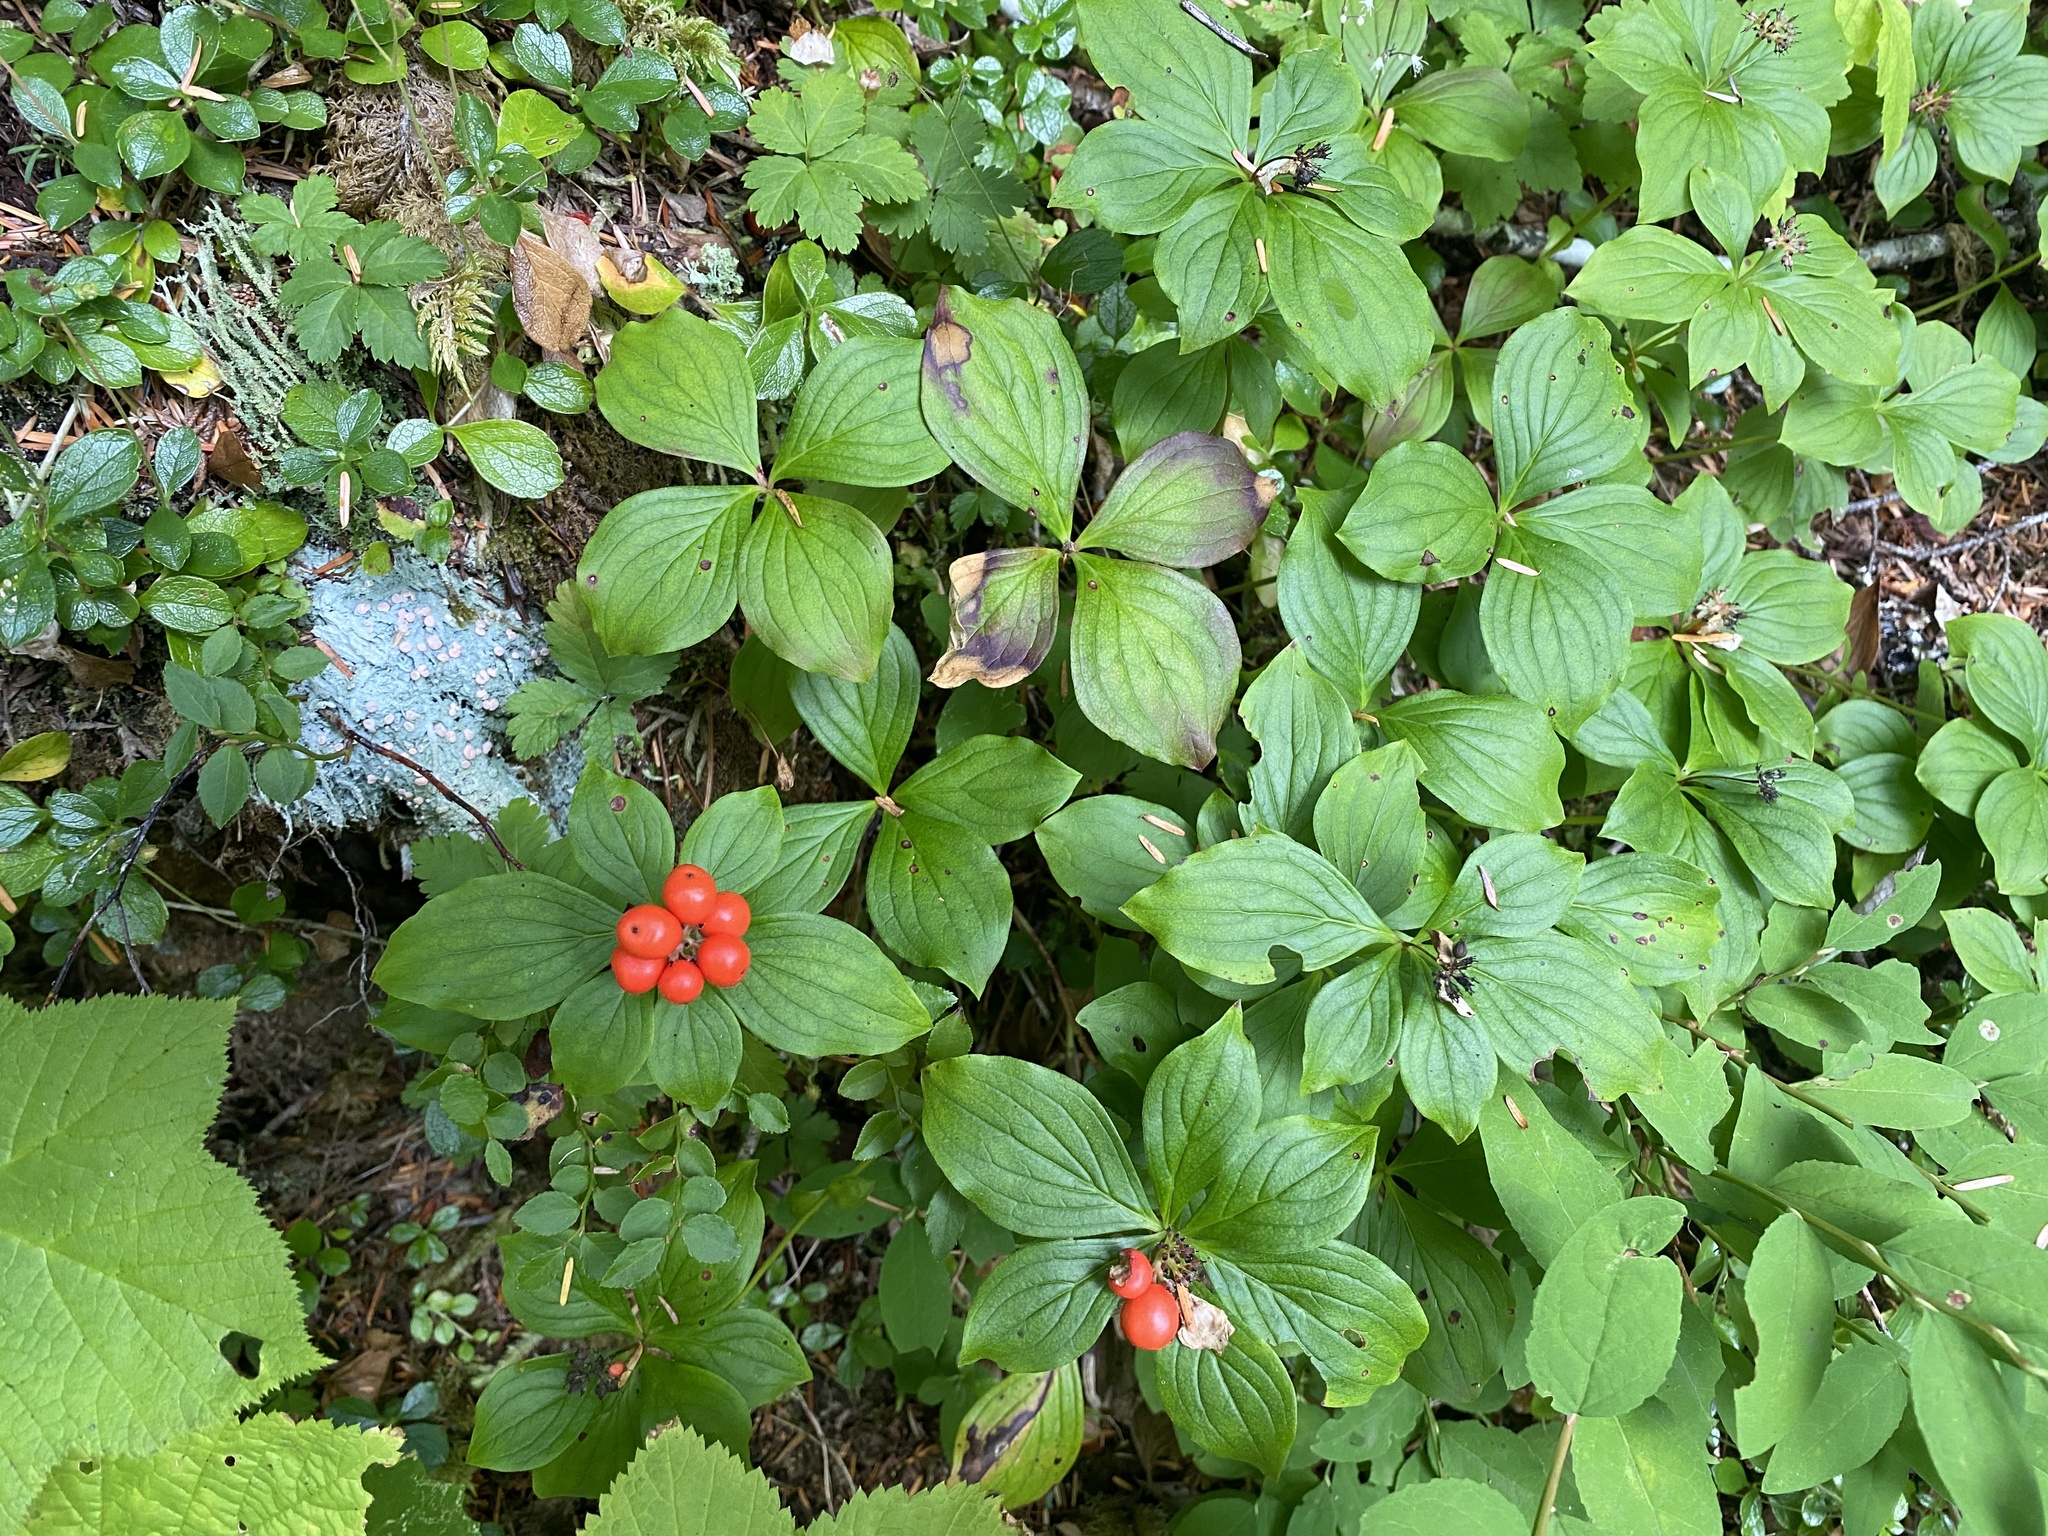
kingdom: Plantae
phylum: Tracheophyta
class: Magnoliopsida
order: Cornales
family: Cornaceae
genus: Cornus
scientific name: Cornus unalaschkensis
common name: Alaska bunchberry
